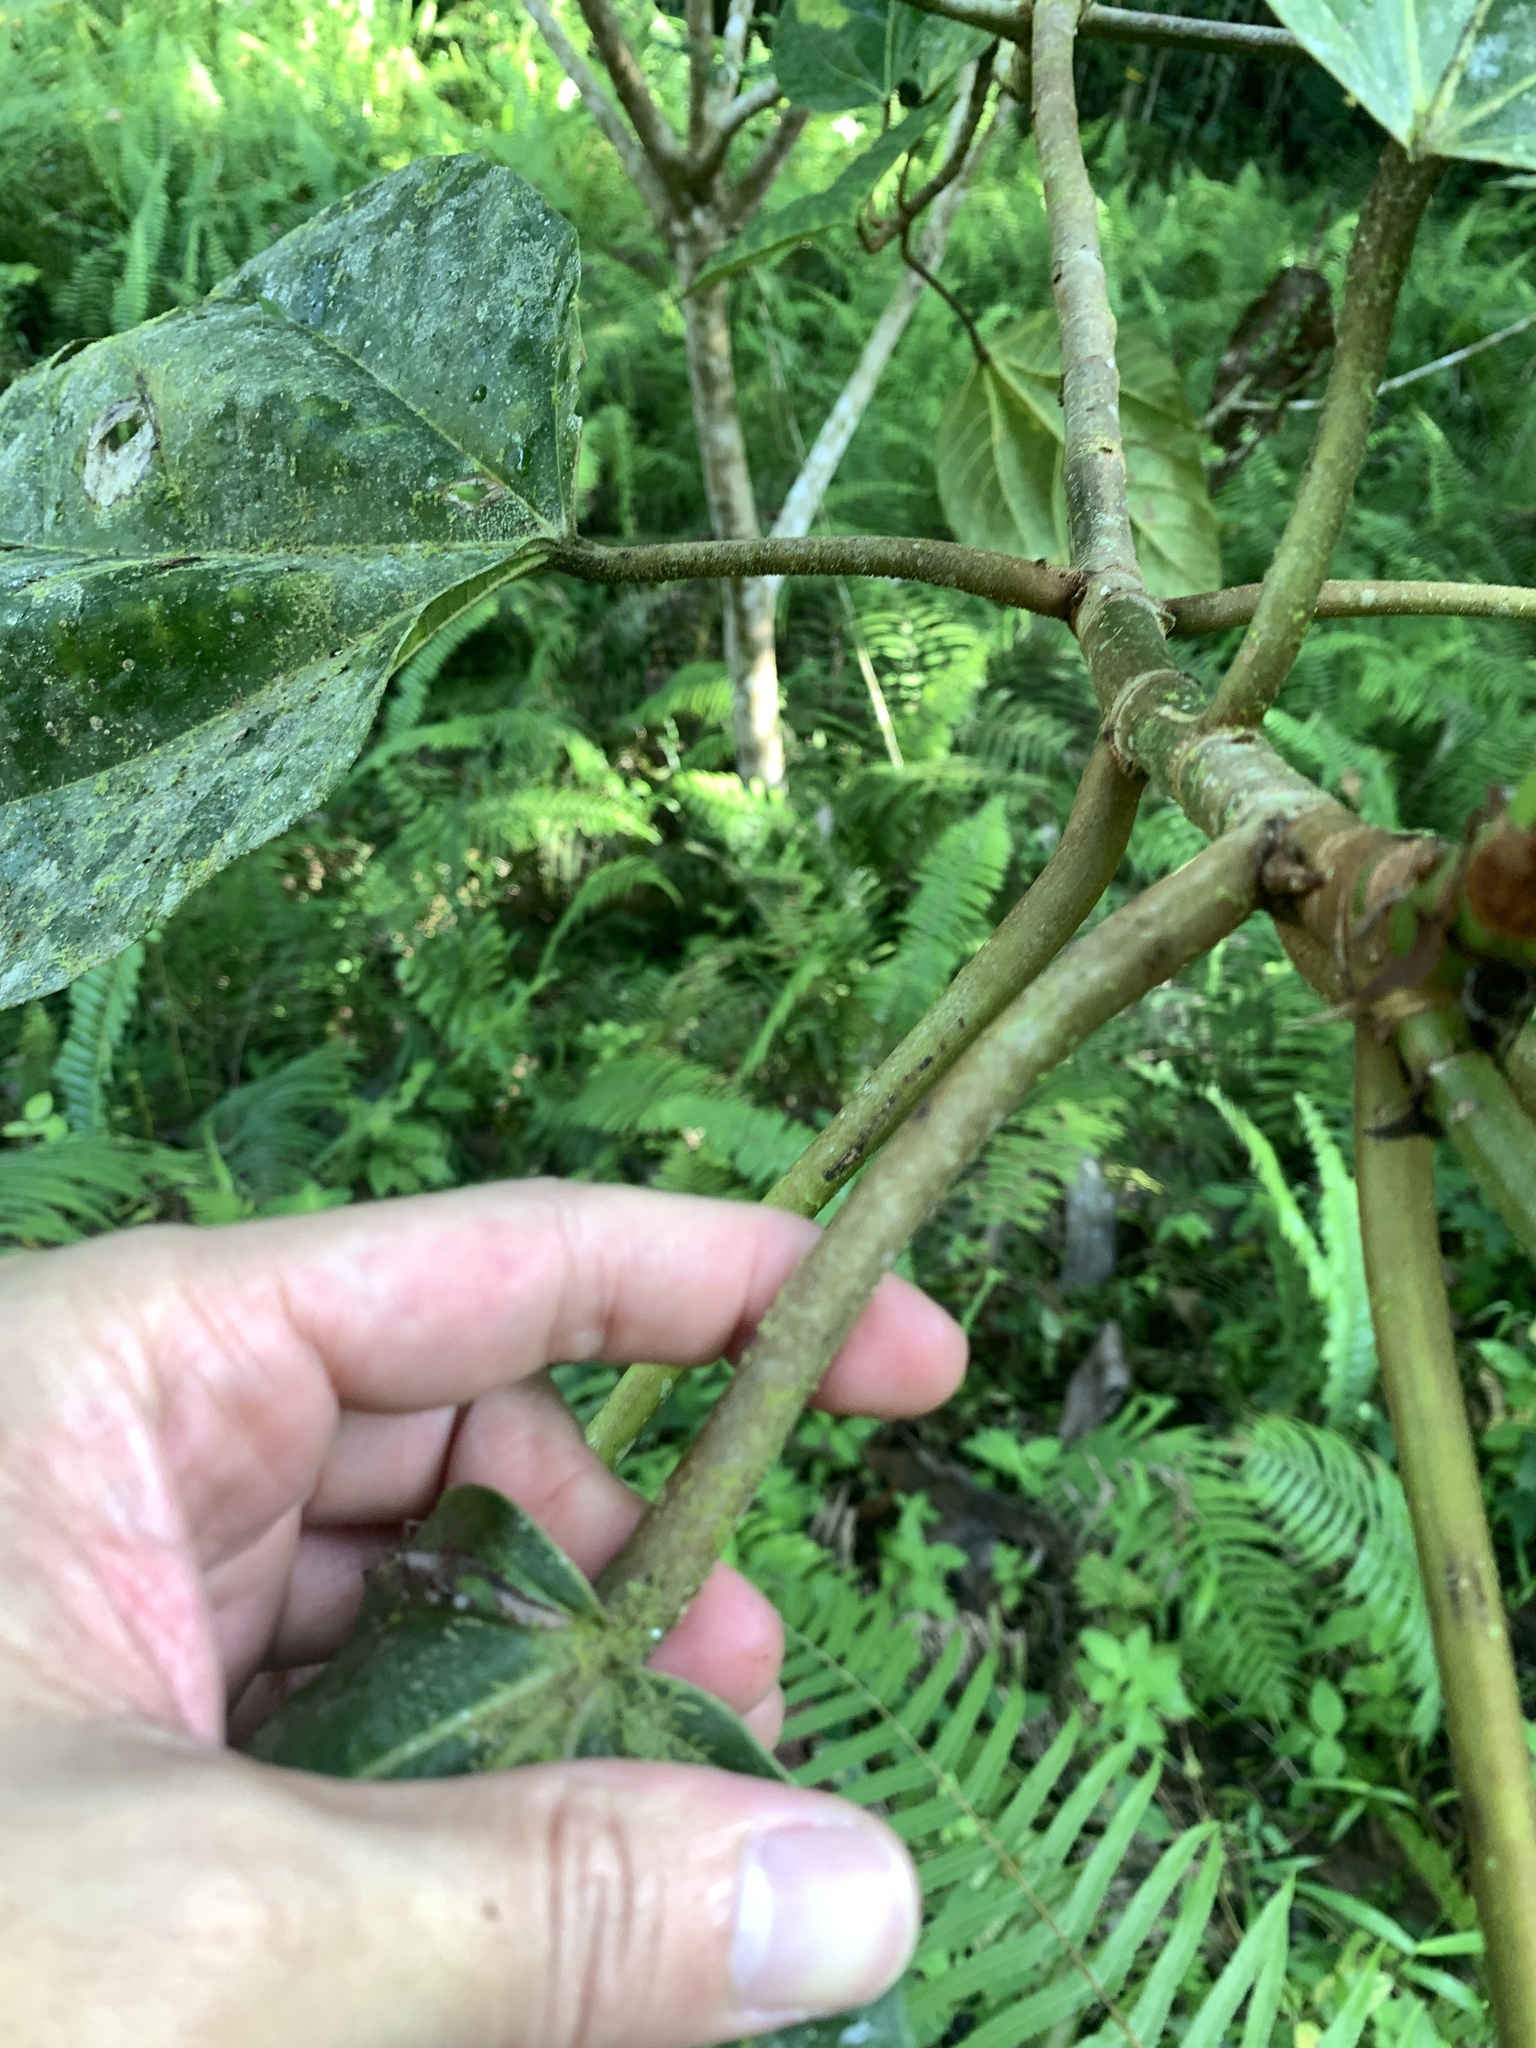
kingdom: Plantae
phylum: Tracheophyta
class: Magnoliopsida
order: Rosales
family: Moraceae
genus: Ficus
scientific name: Ficus auriculata
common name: Roxburgh fig
